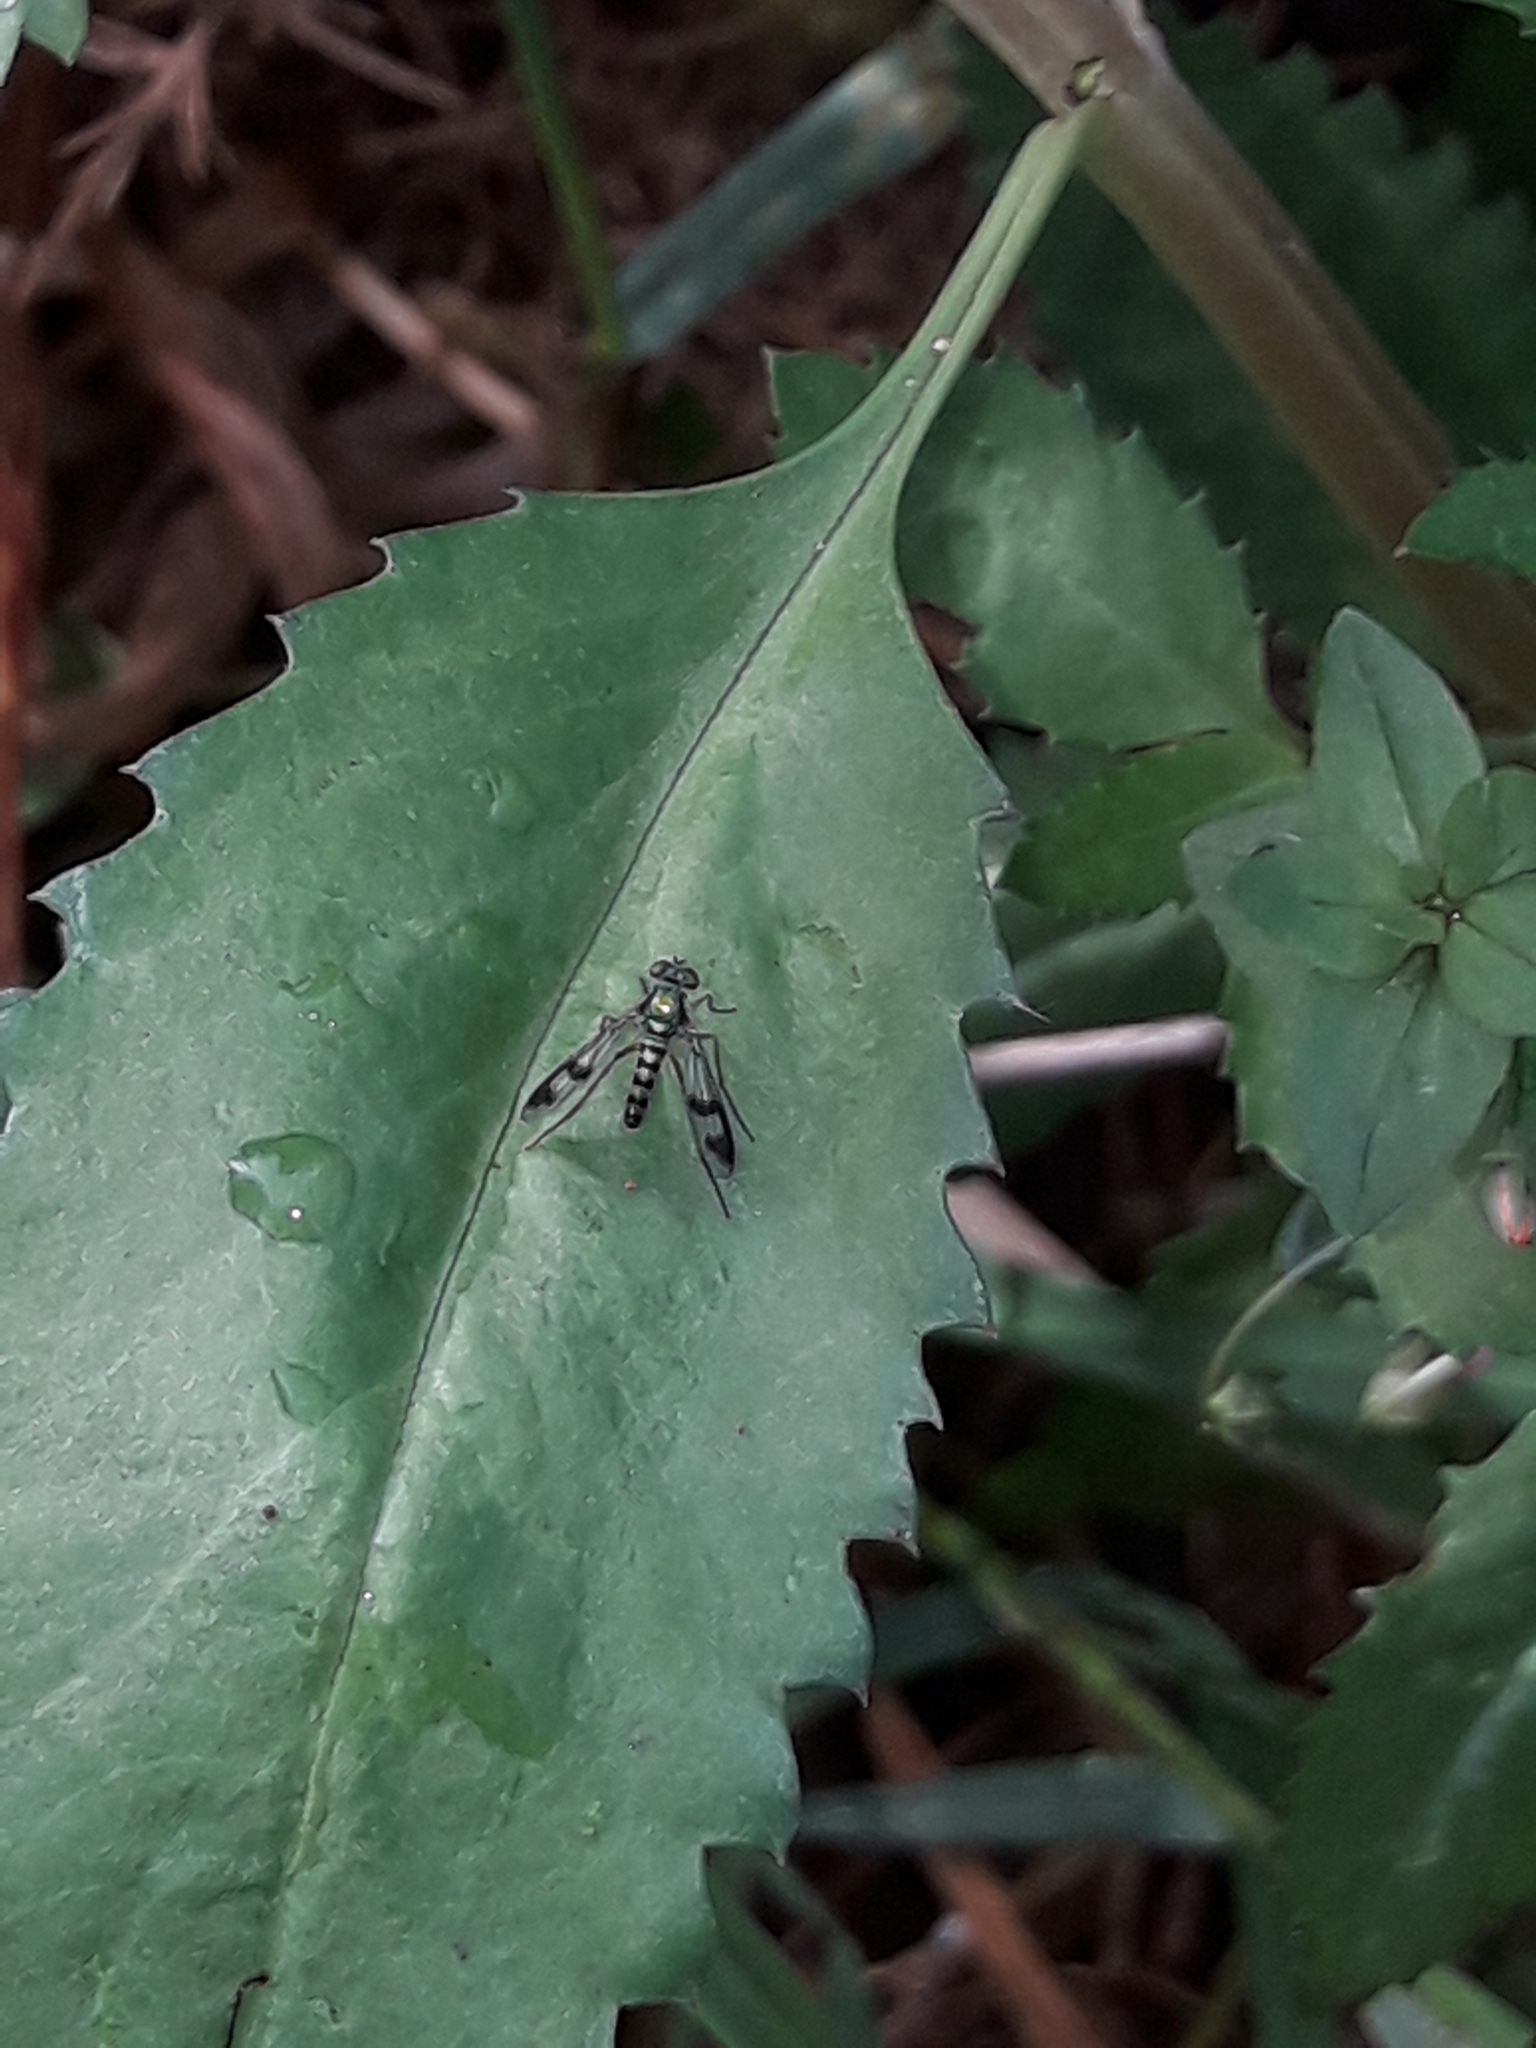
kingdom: Animalia
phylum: Arthropoda
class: Insecta
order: Diptera
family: Dolichopodidae
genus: Austrosciapus
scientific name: Austrosciapus proximus
